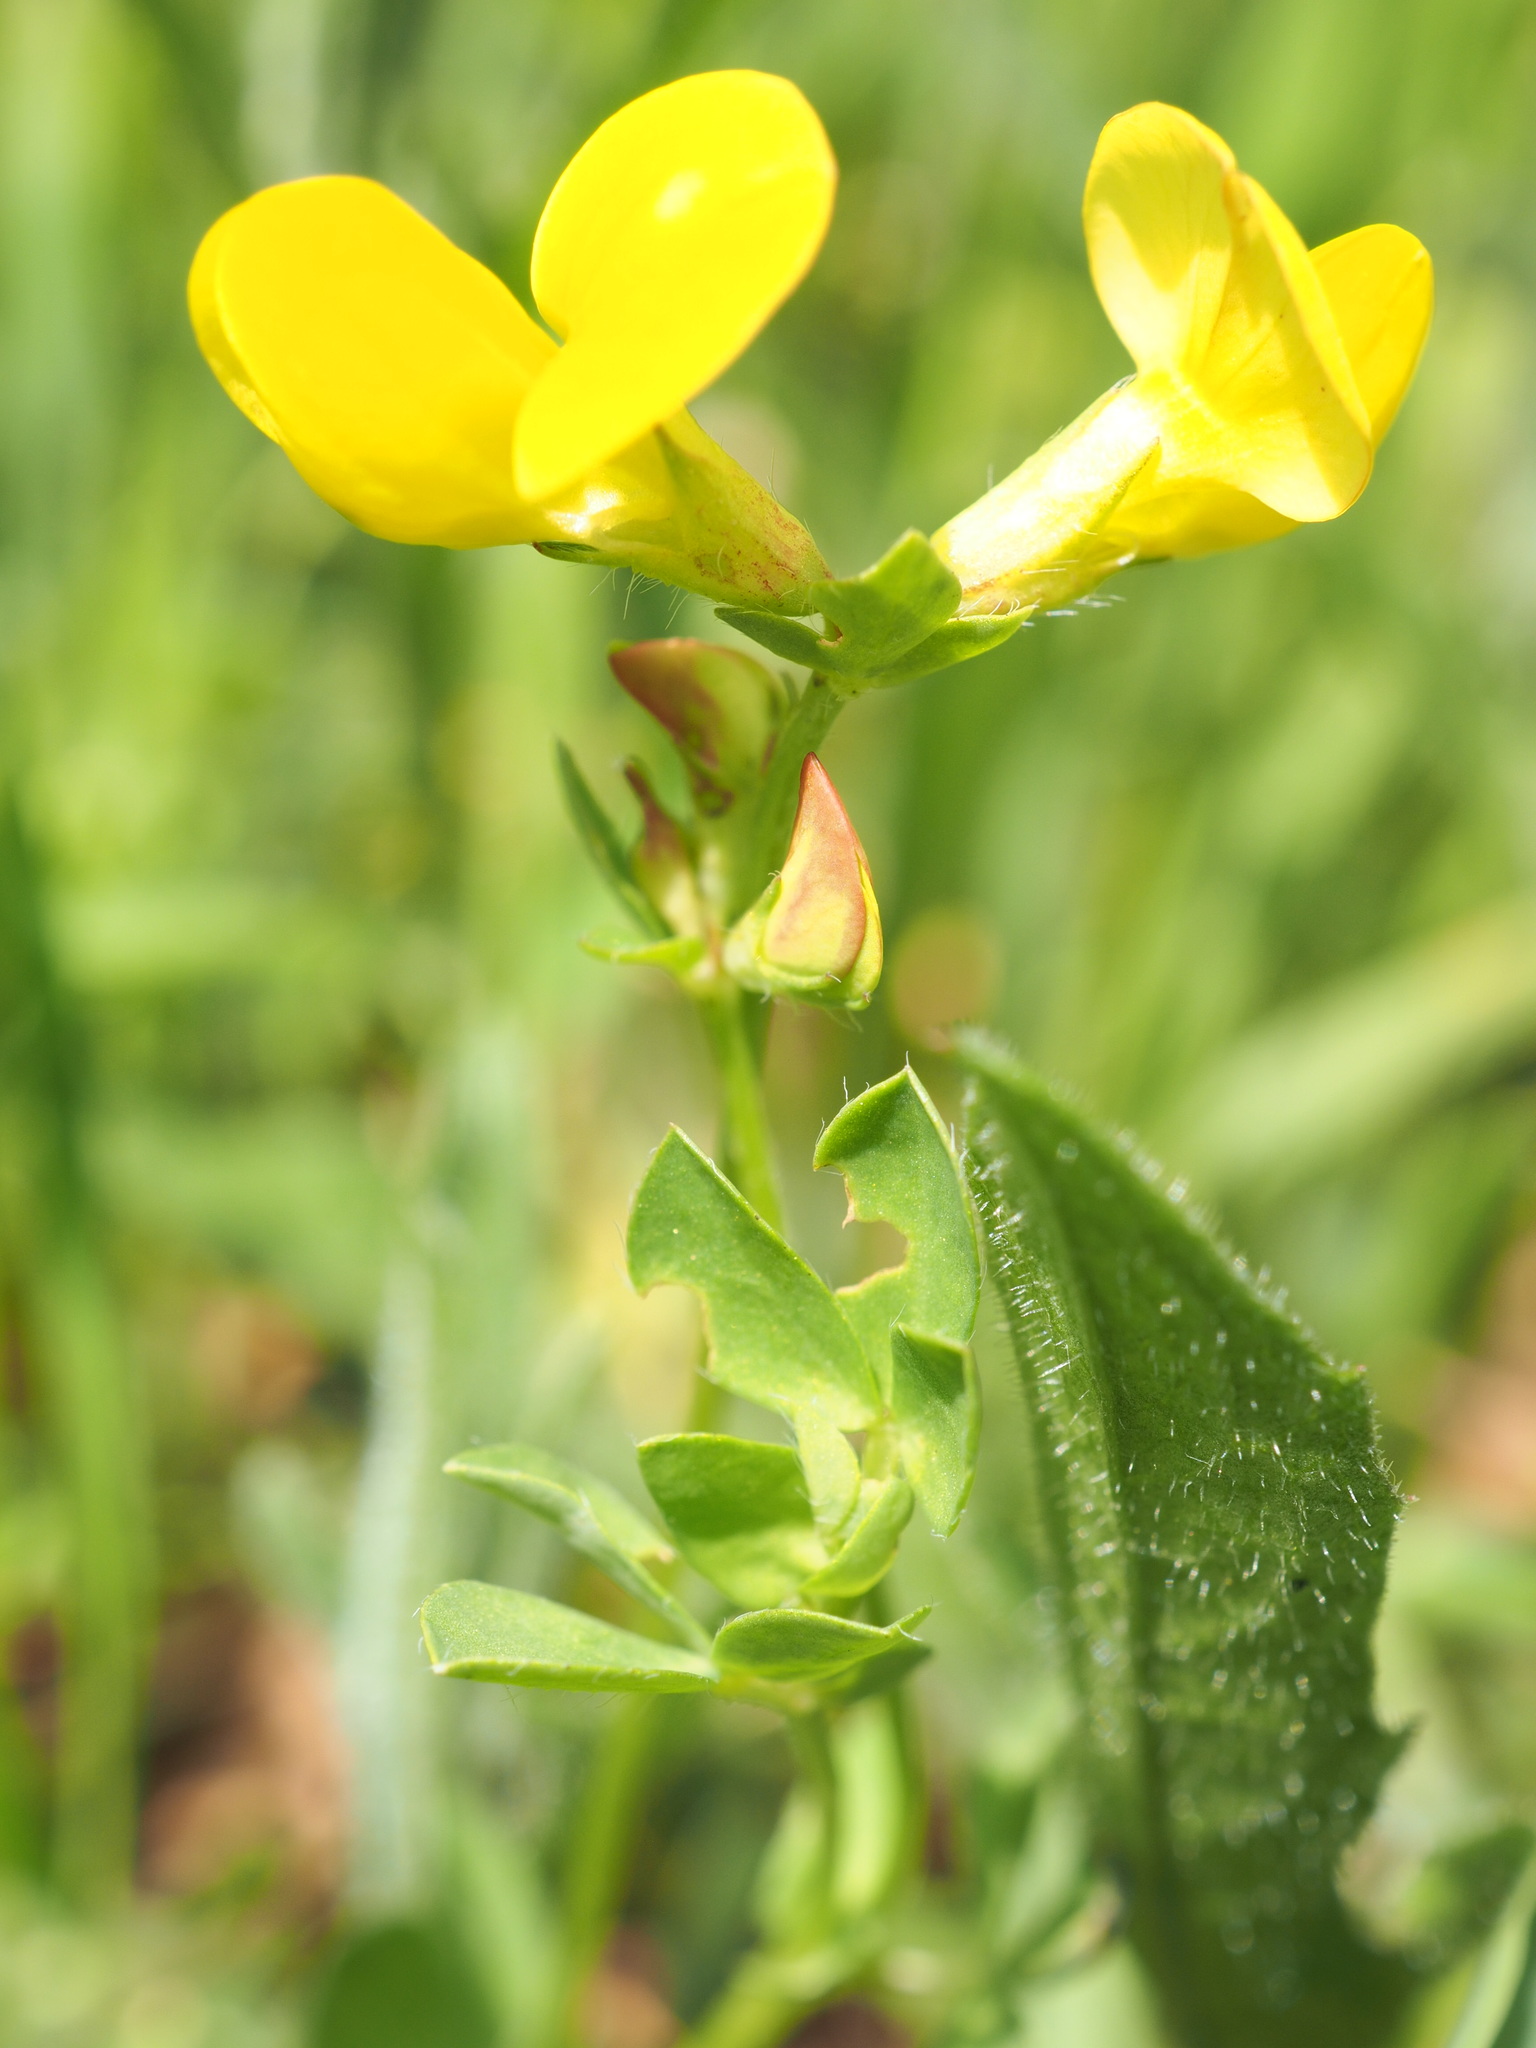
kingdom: Plantae
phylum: Tracheophyta
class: Magnoliopsida
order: Fabales
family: Fabaceae
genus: Lotus
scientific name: Lotus corniculatus
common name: Common bird's-foot-trefoil
